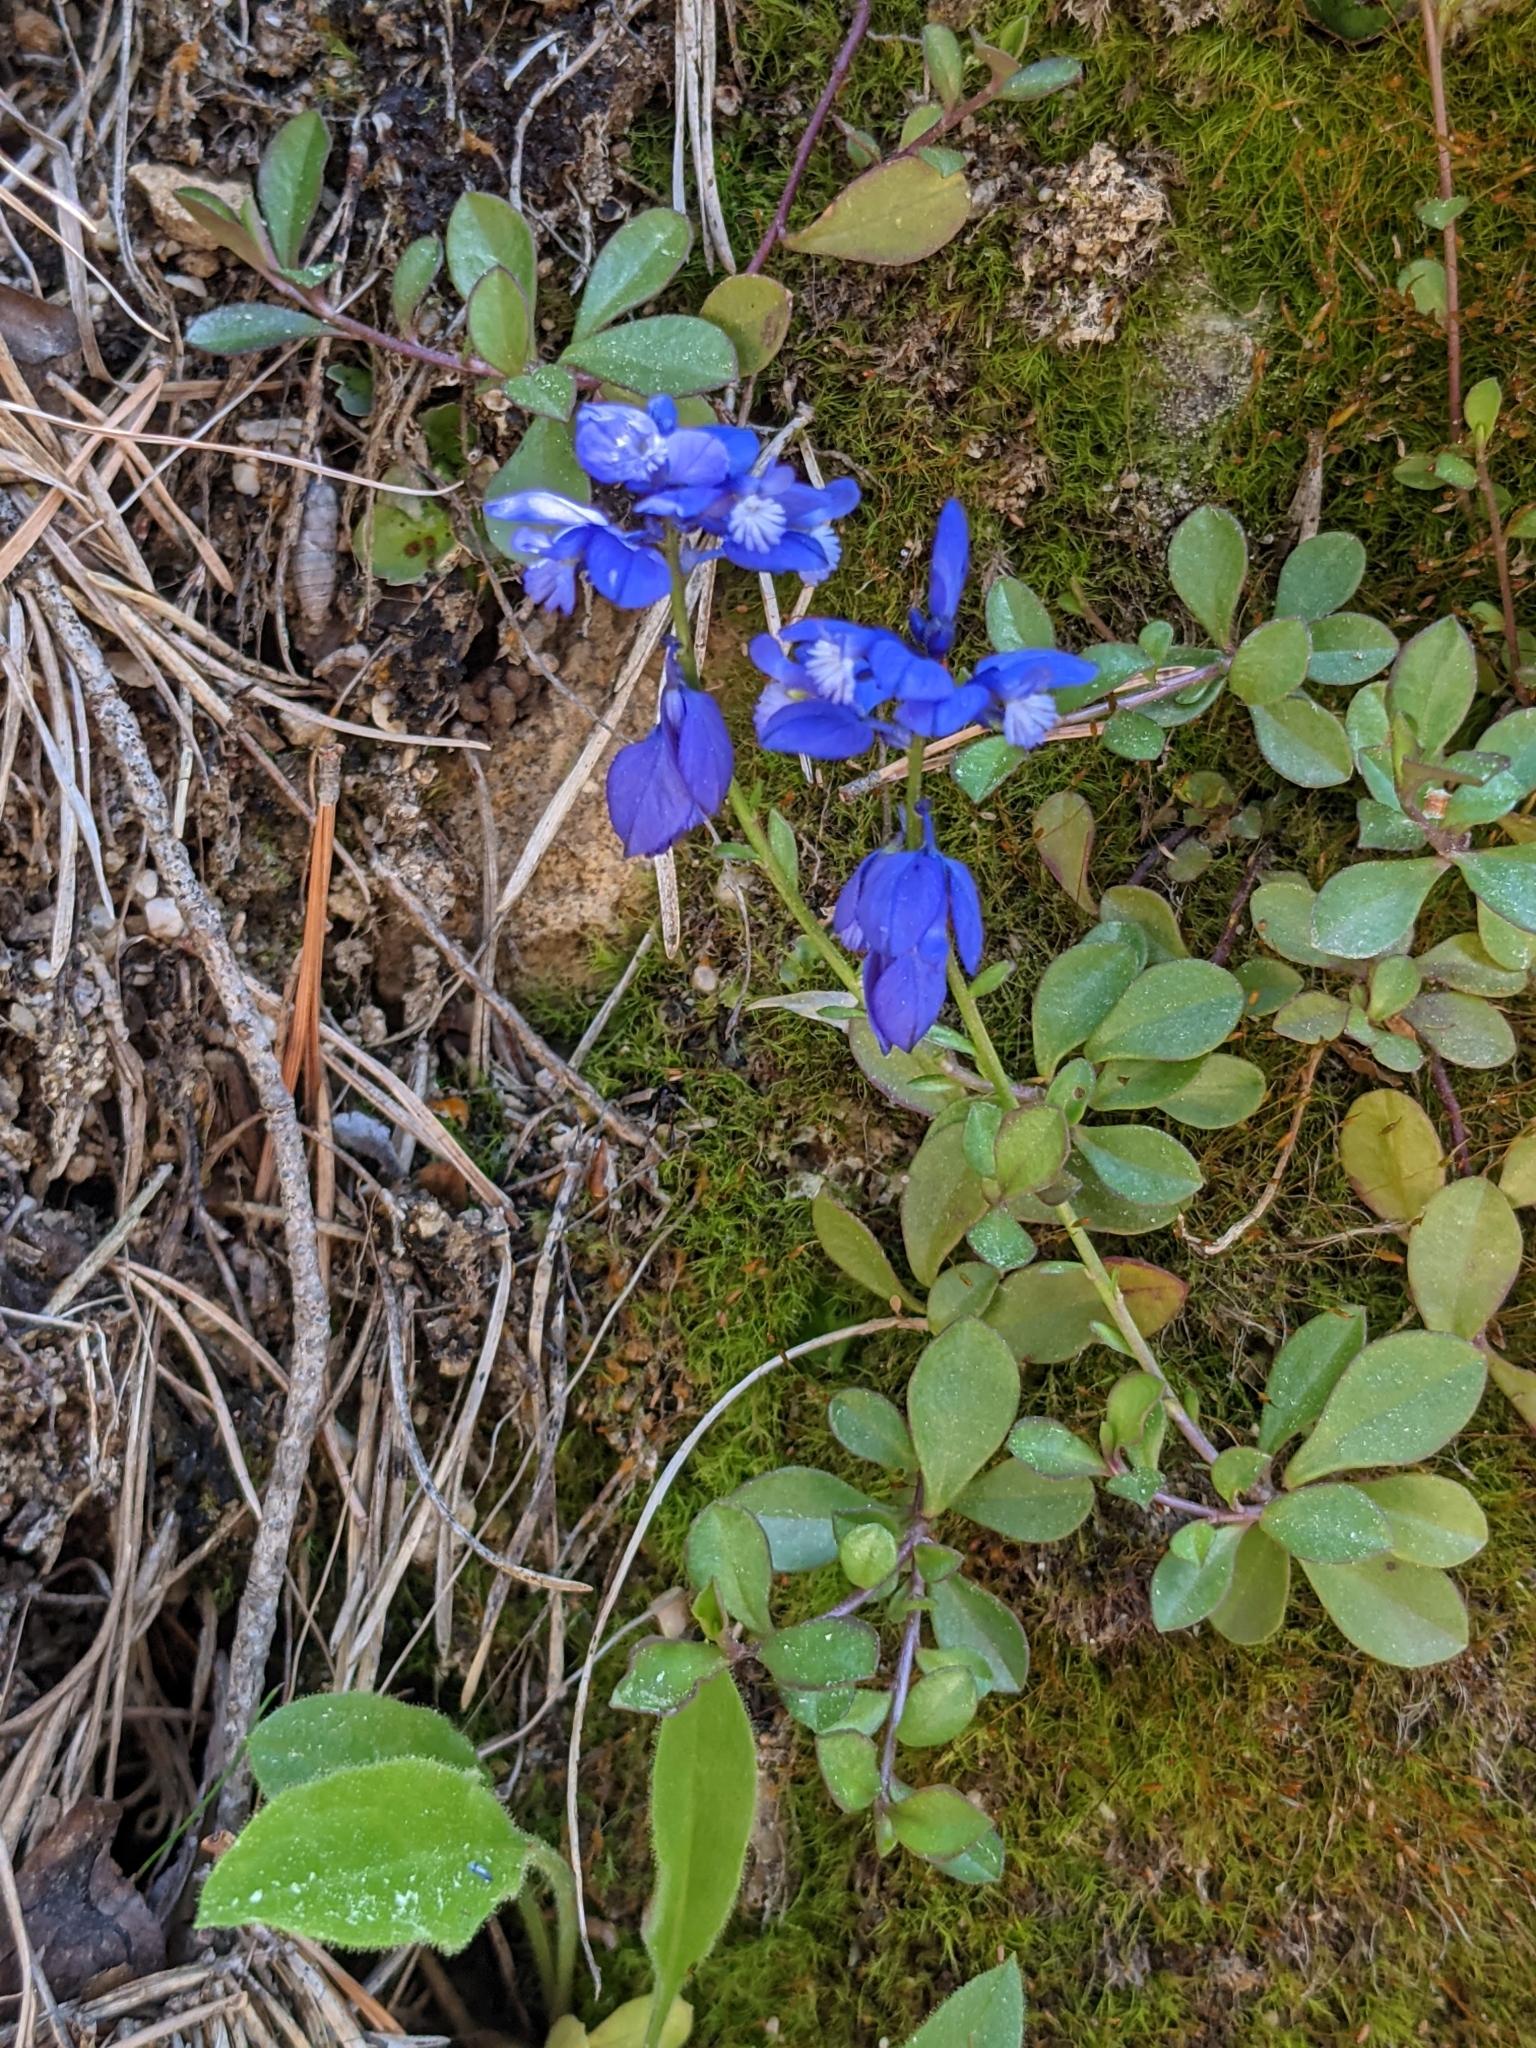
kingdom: Plantae
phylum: Tracheophyta
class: Magnoliopsida
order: Fabales
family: Polygalaceae
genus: Polygala
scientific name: Polygala calcarea
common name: Chalk milkwort
